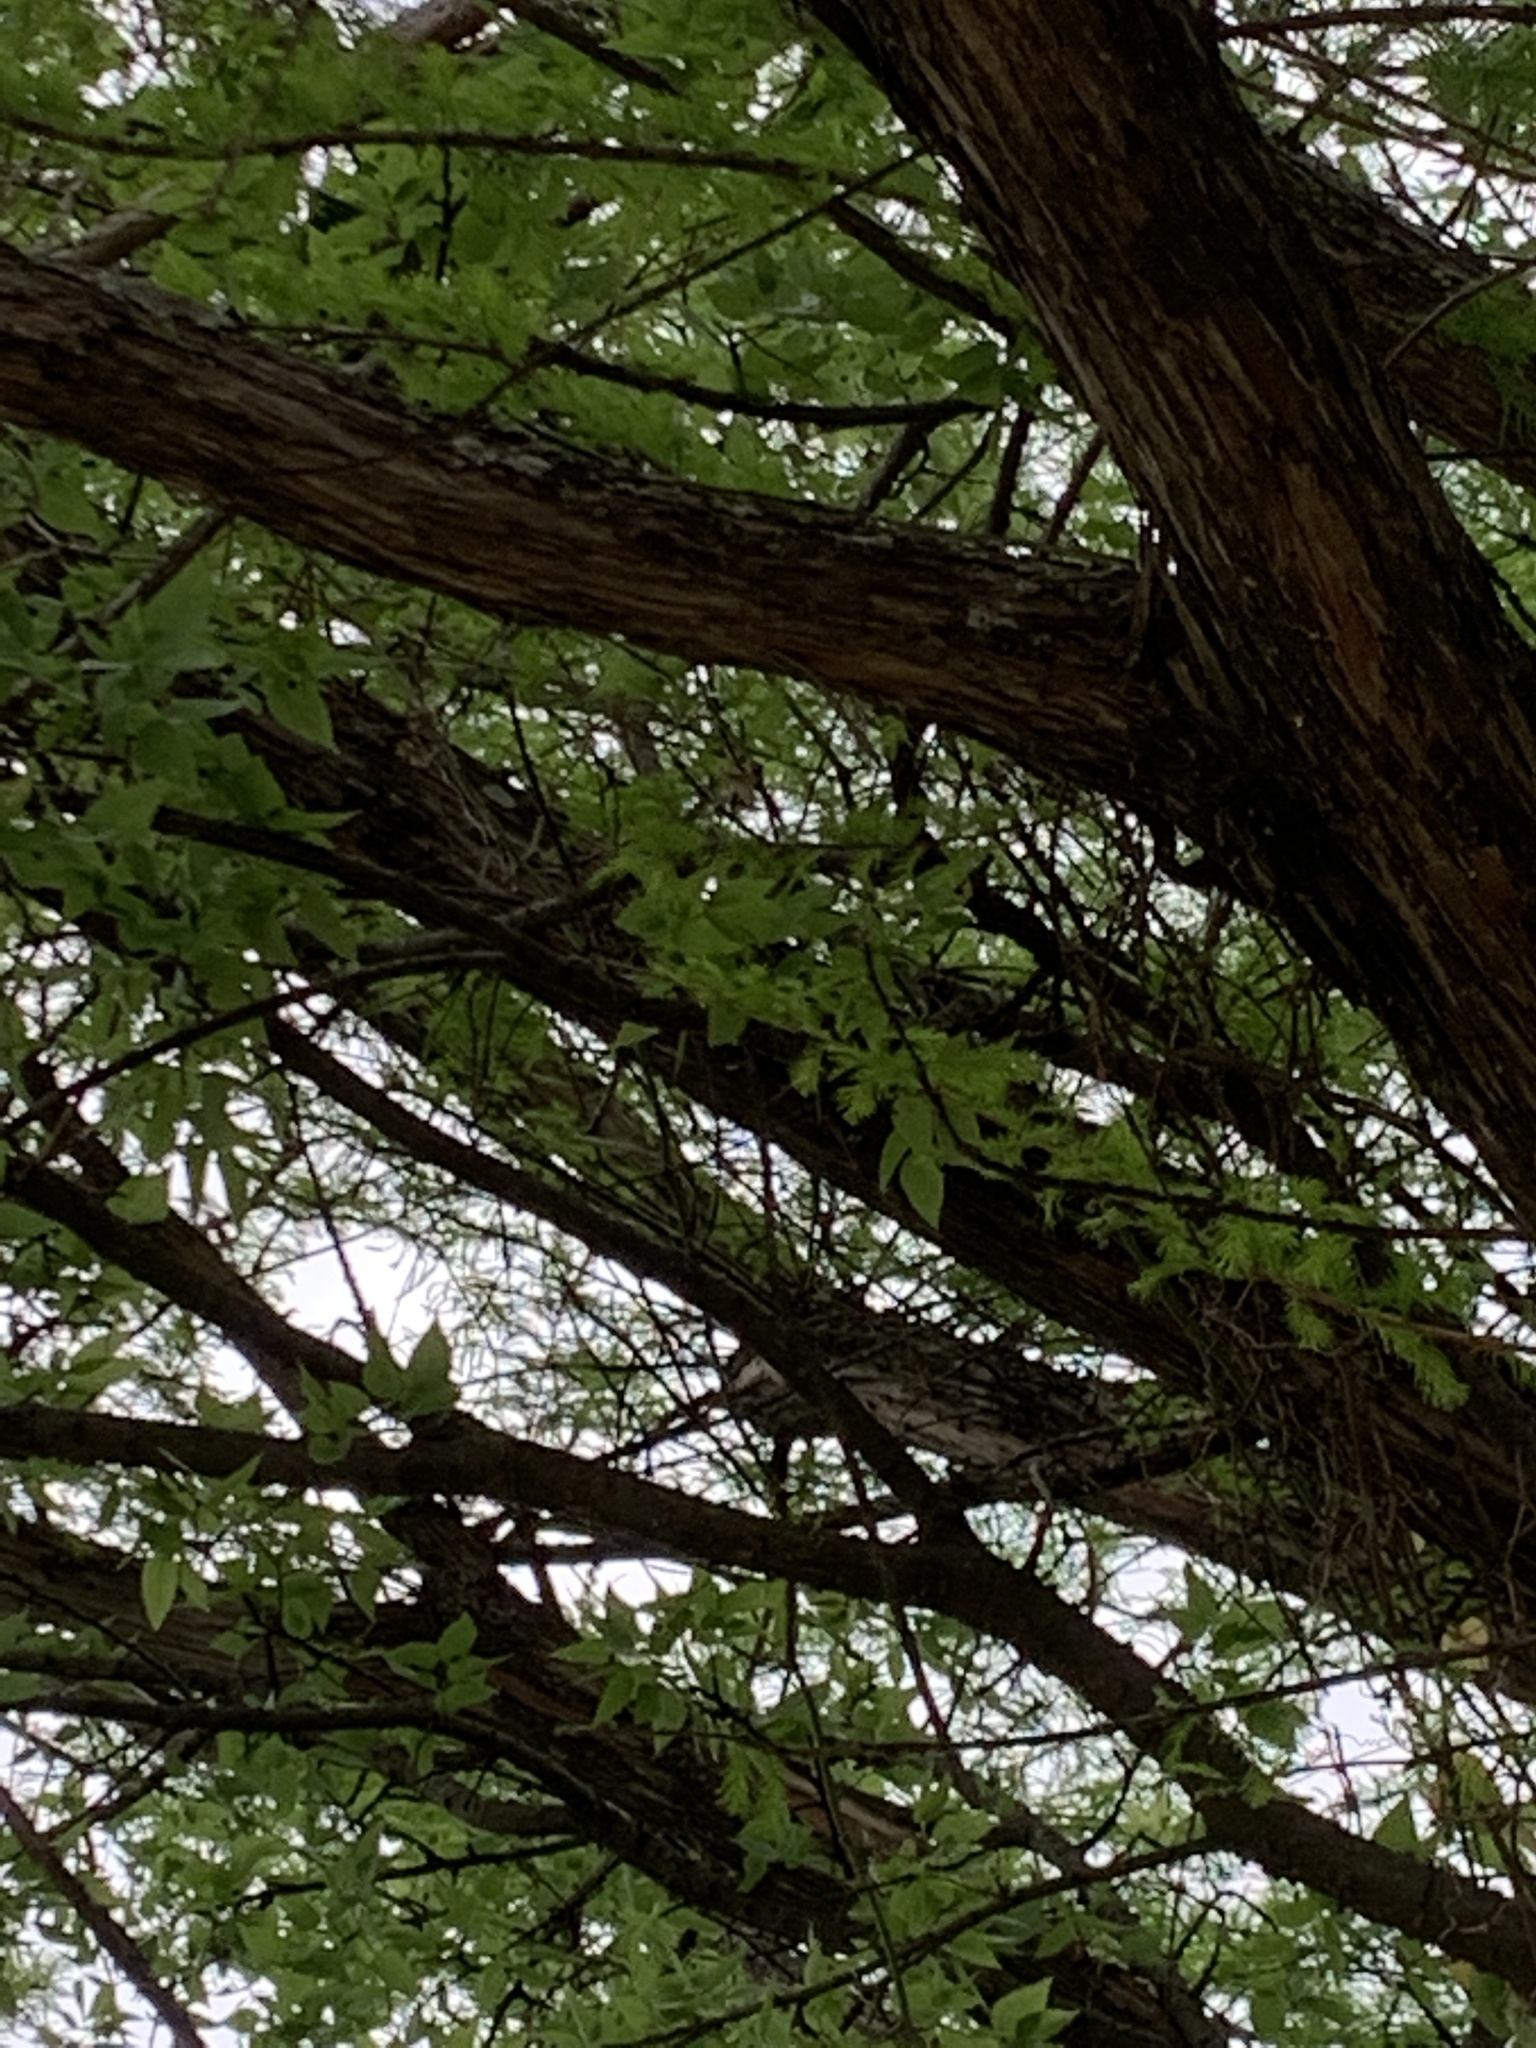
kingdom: Plantae
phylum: Tracheophyta
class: Pinopsida
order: Pinales
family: Cupressaceae
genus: Taxodium
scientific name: Taxodium distichum
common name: Bald cypress
